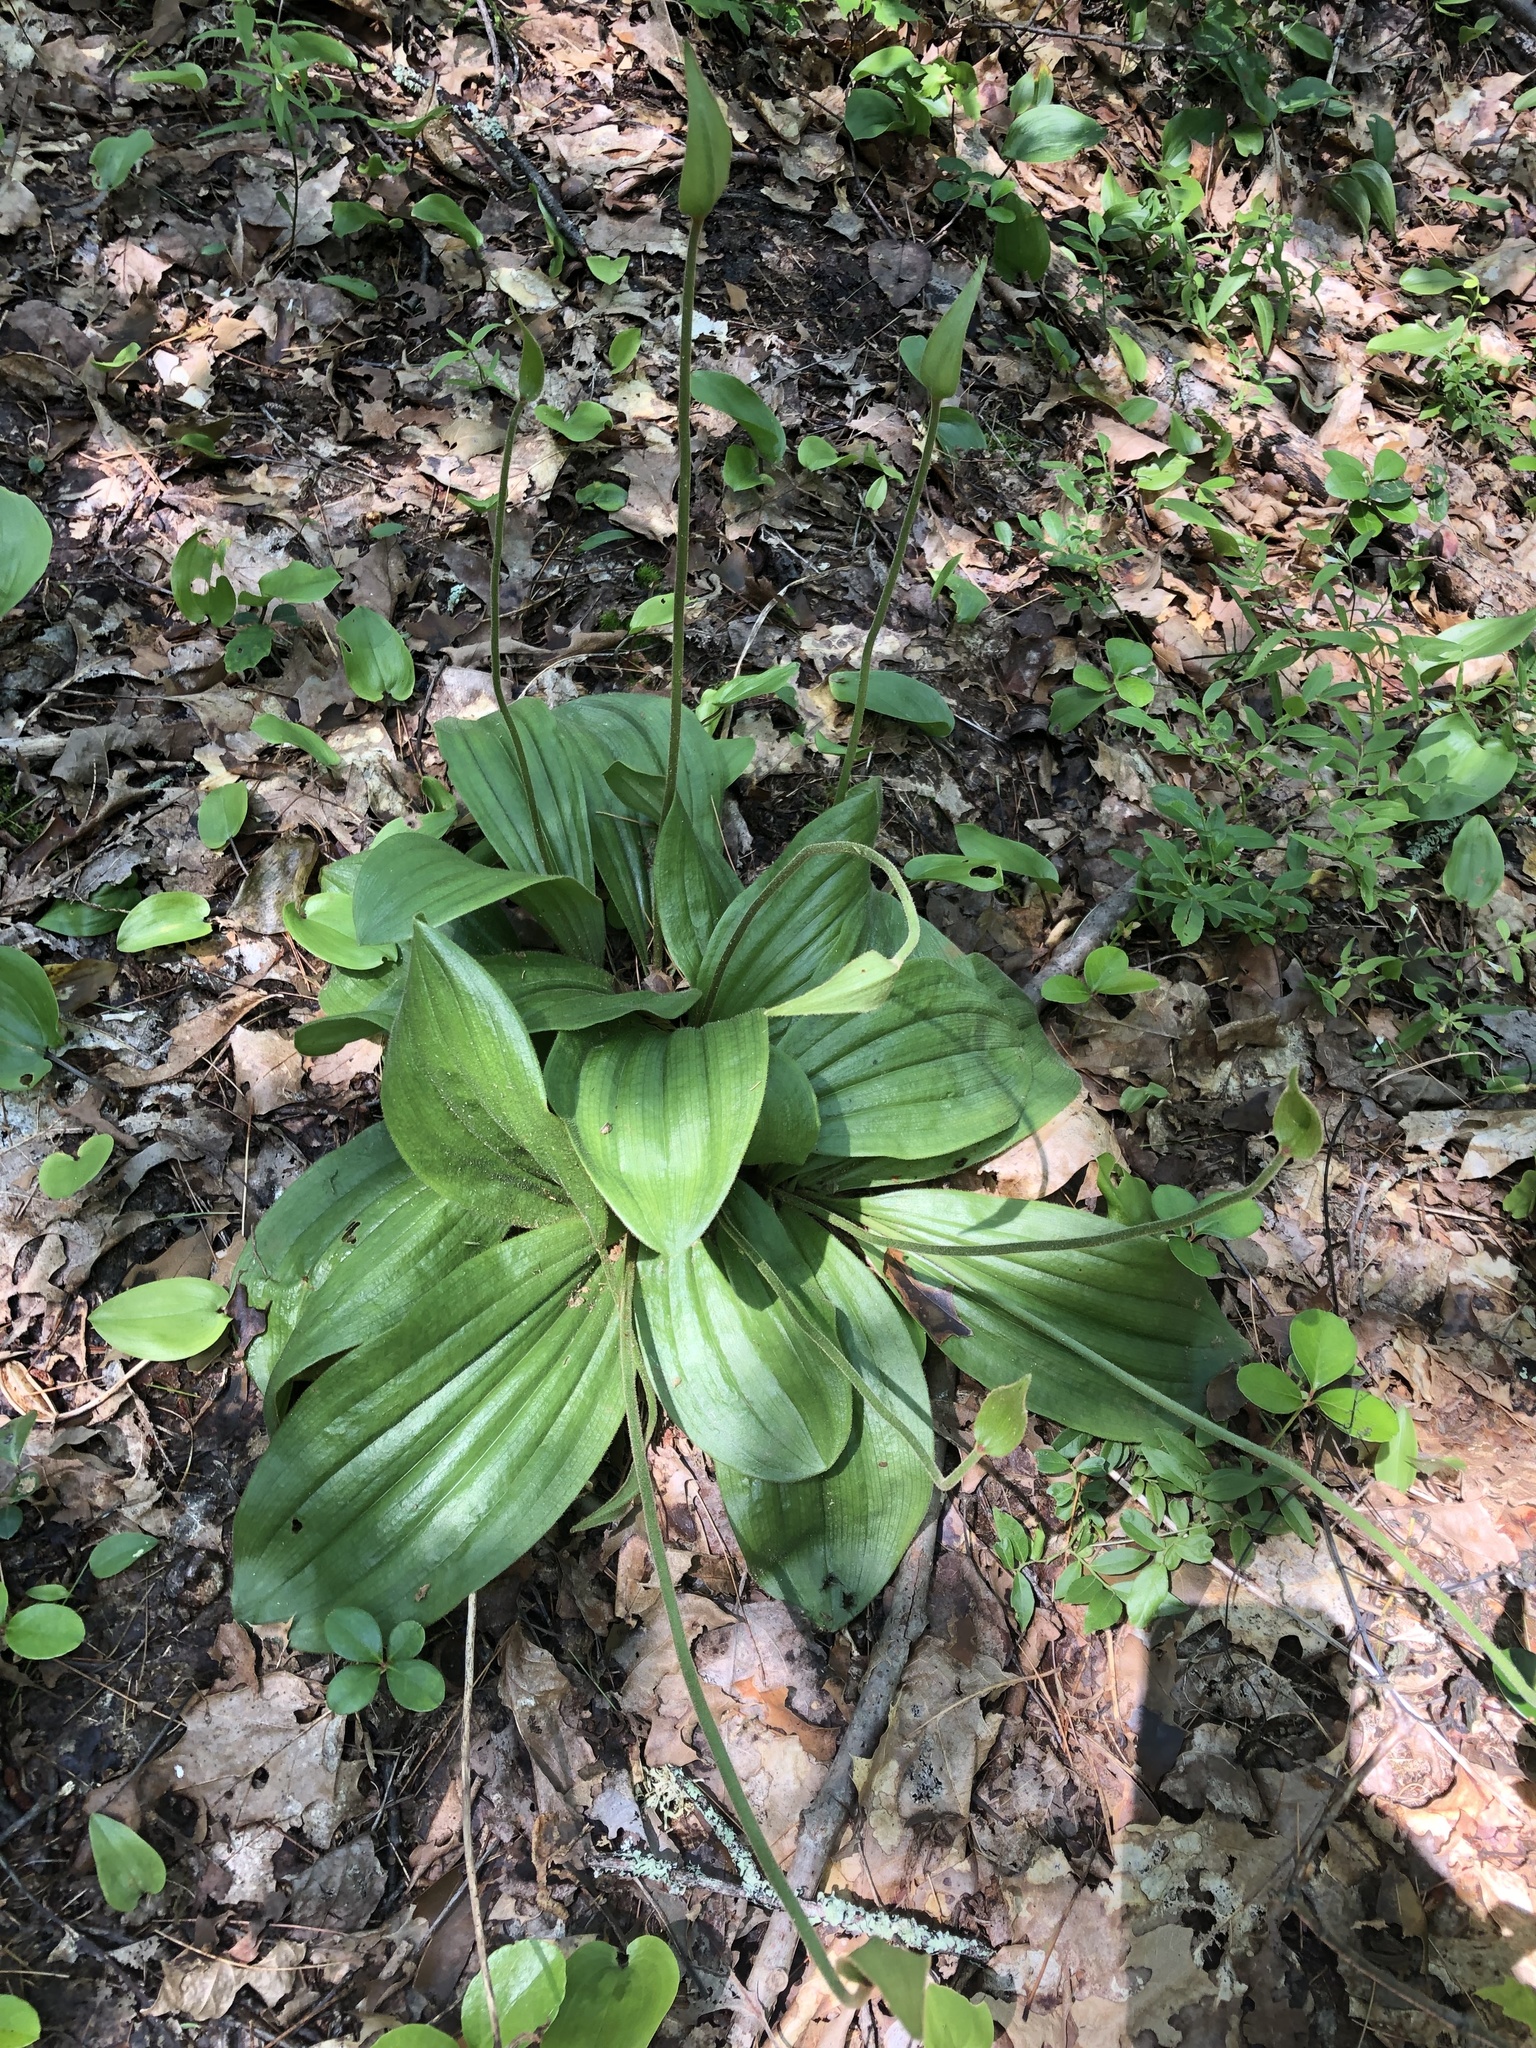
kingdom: Plantae
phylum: Tracheophyta
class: Liliopsida
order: Asparagales
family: Orchidaceae
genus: Cypripedium
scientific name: Cypripedium acaule
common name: Pink lady's-slipper
